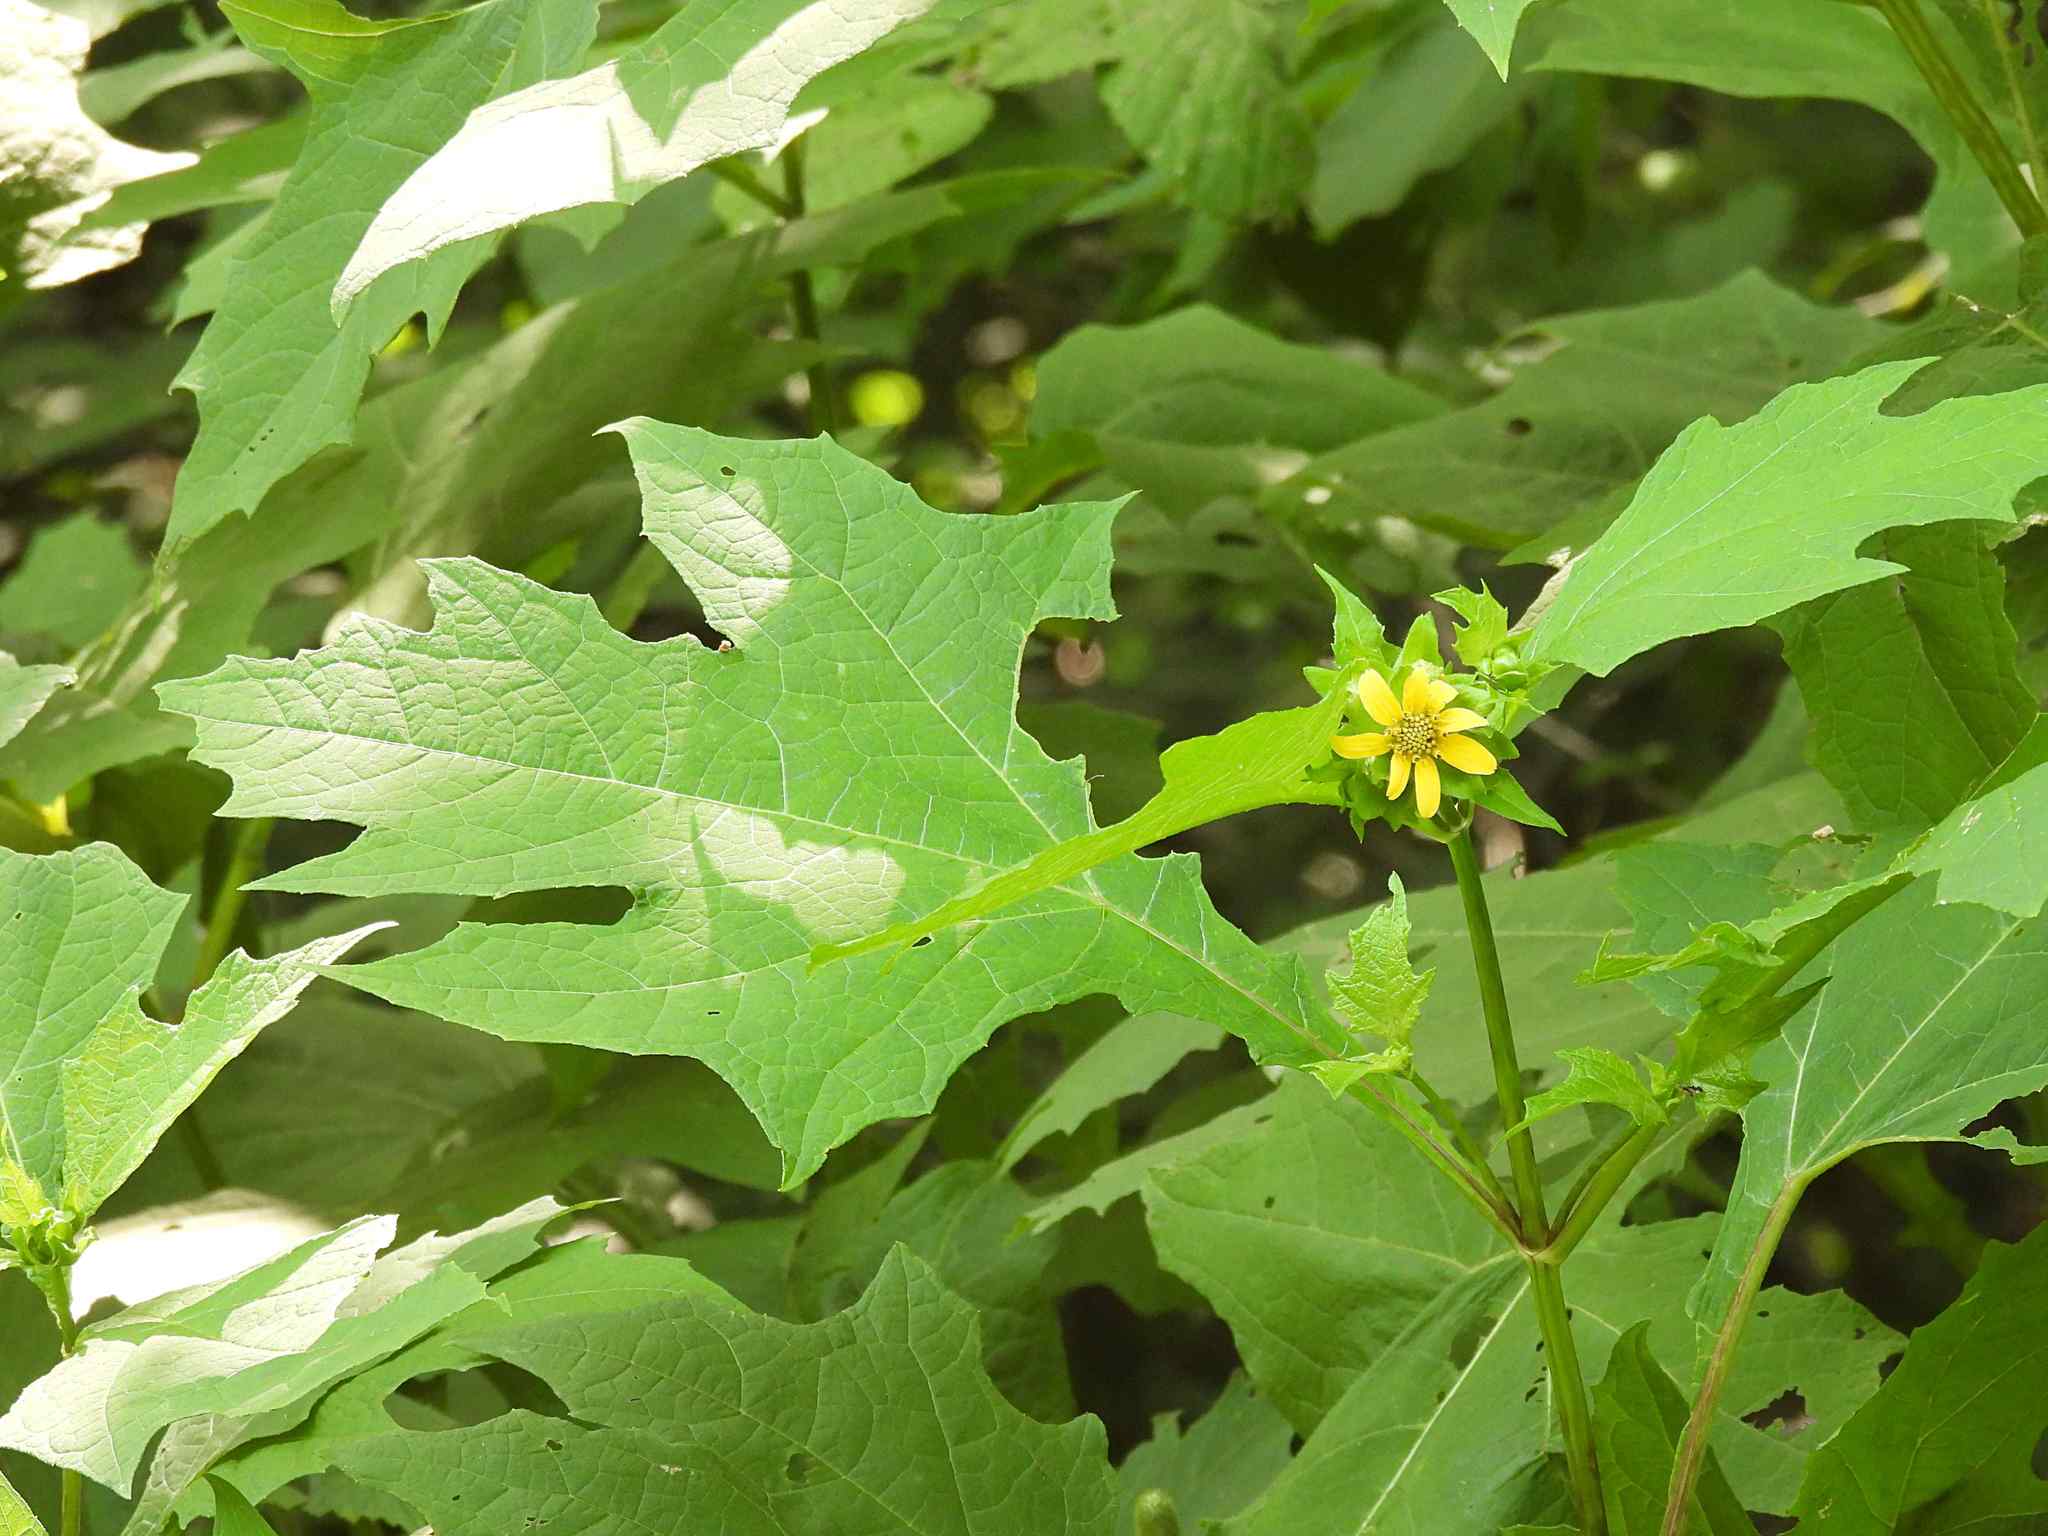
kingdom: Plantae
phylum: Tracheophyta
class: Magnoliopsida
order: Asterales
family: Asteraceae
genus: Smallanthus
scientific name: Smallanthus uvedalia
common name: Bear's-foot
